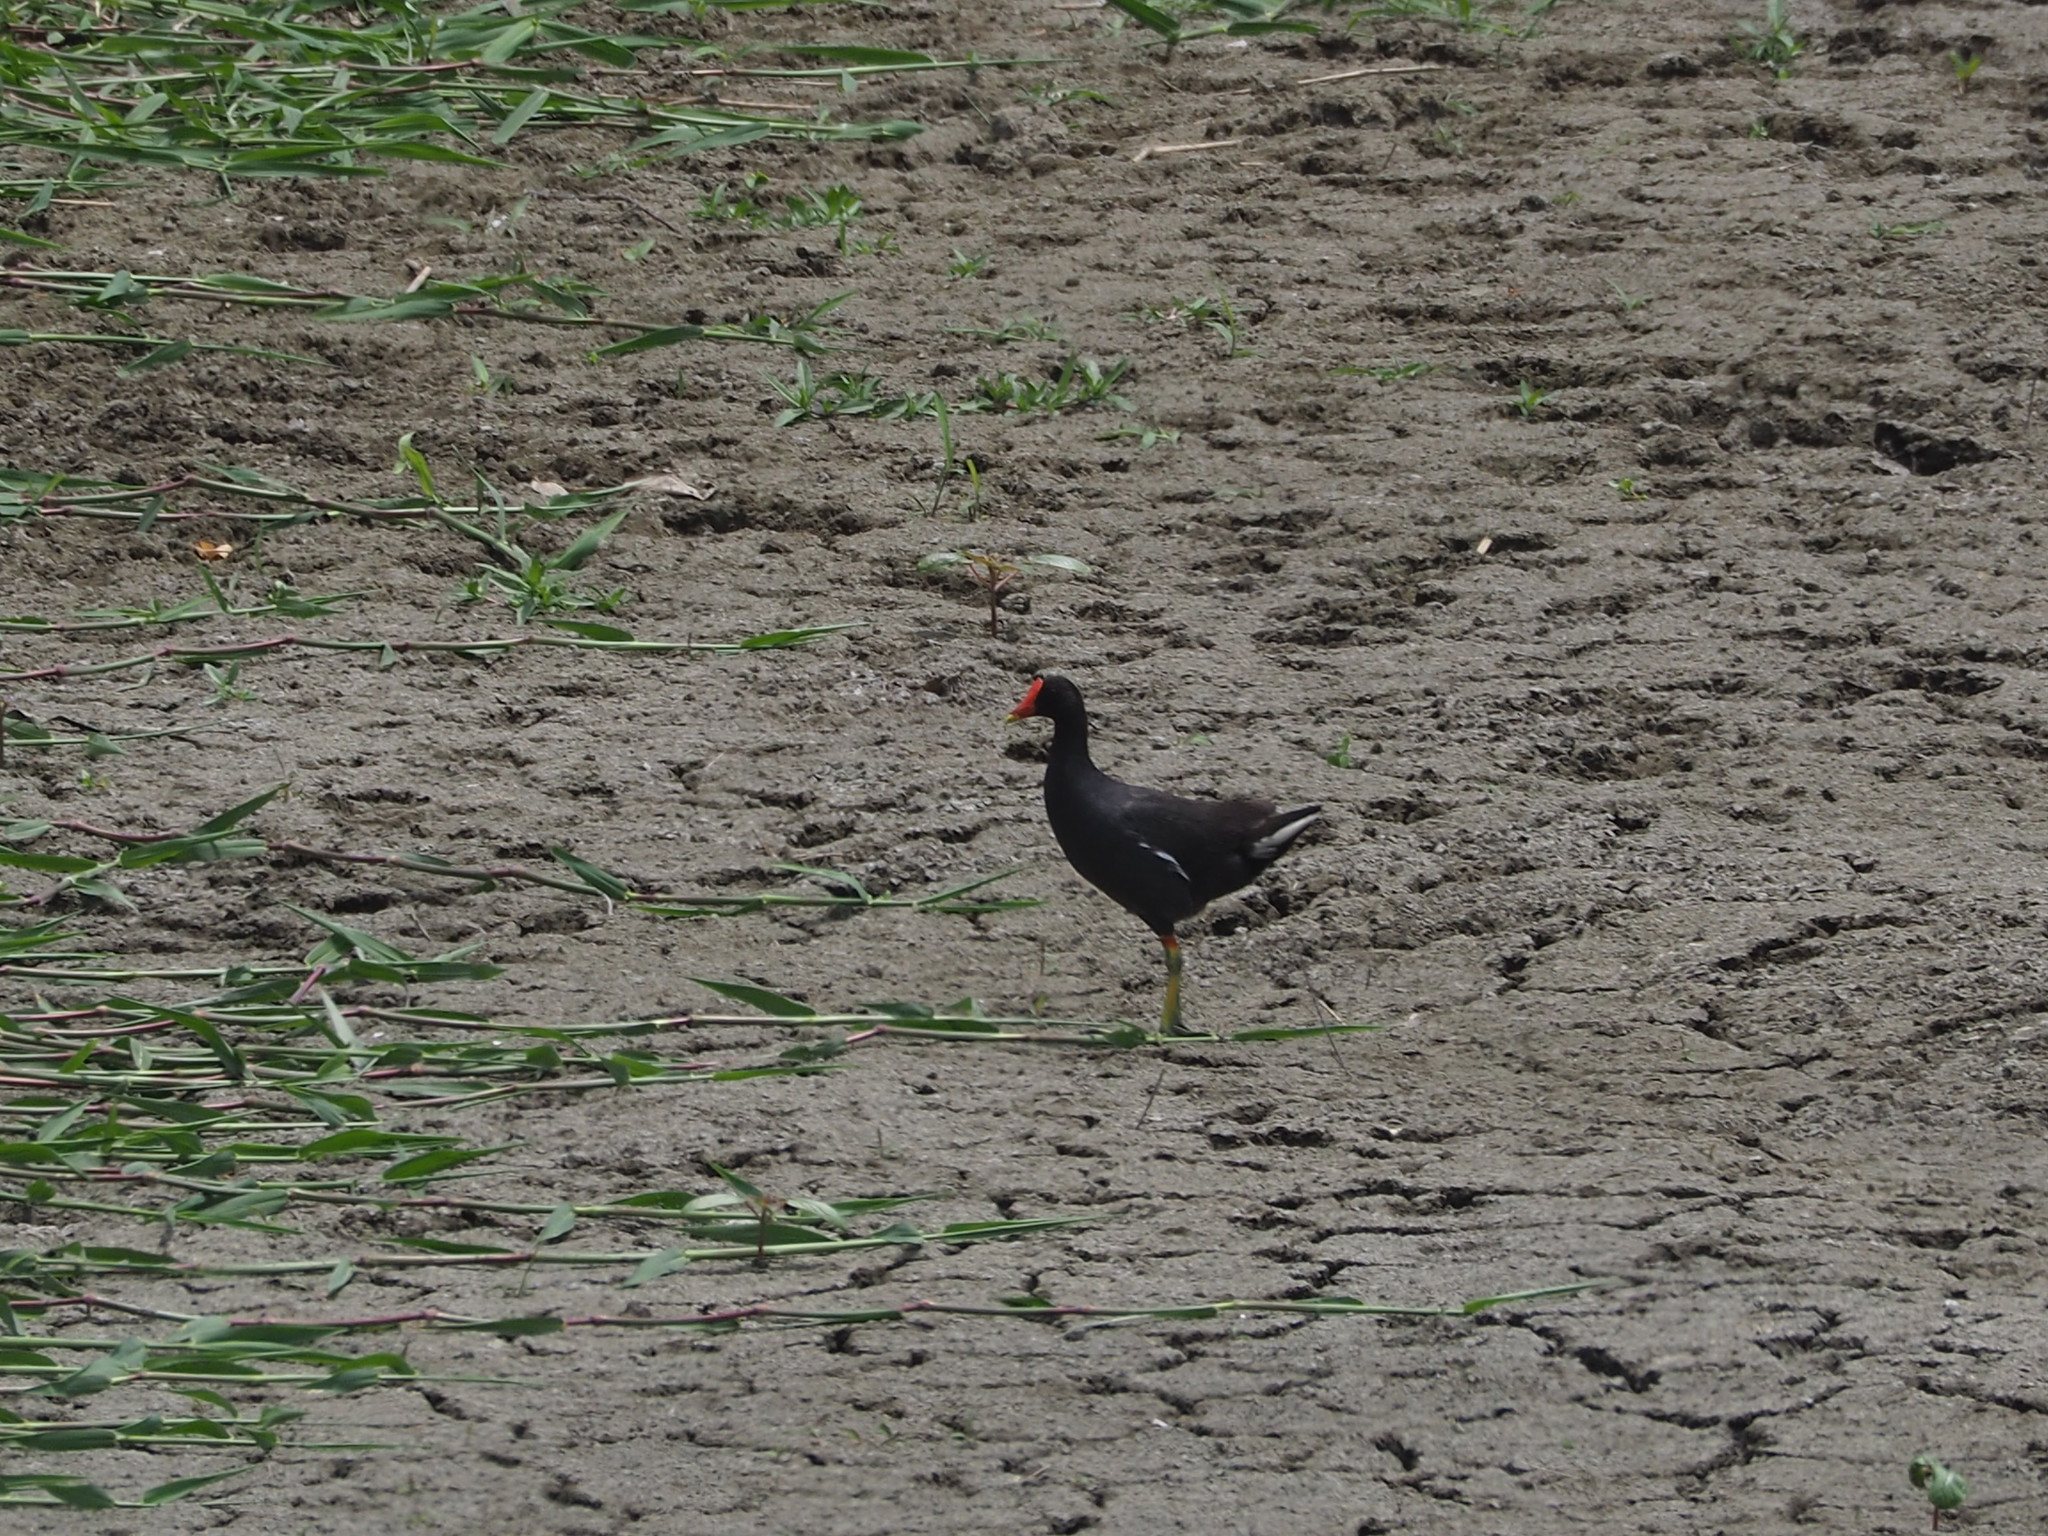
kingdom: Animalia
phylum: Chordata
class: Aves
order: Gruiformes
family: Rallidae
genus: Gallinula
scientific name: Gallinula chloropus
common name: Common moorhen
